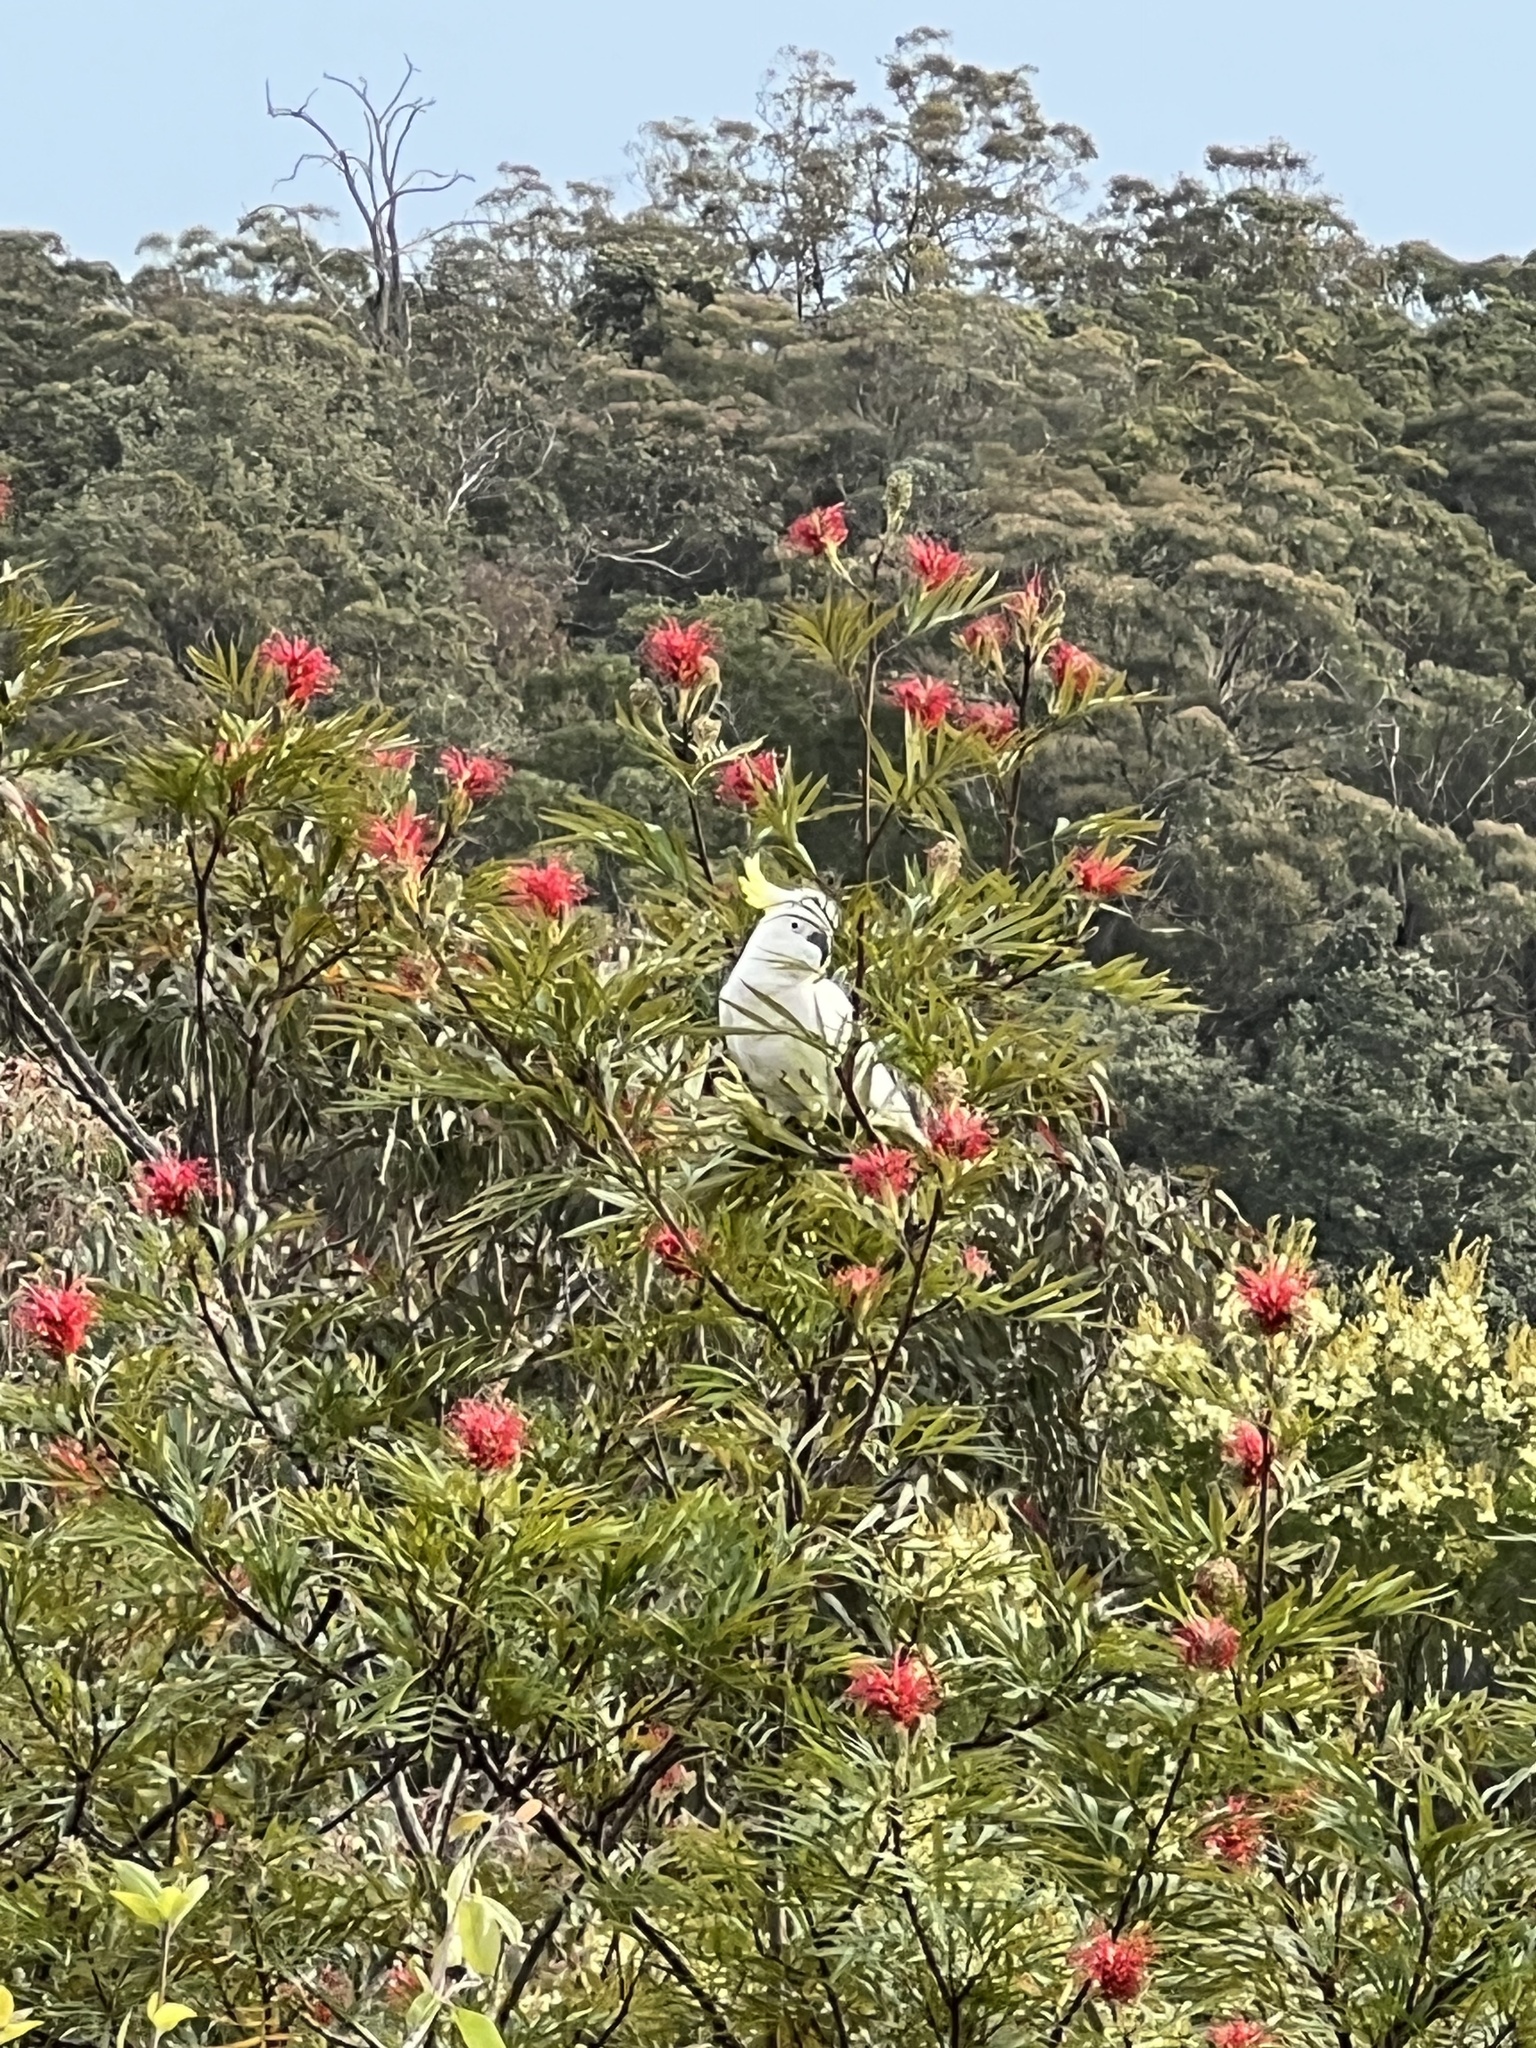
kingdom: Animalia
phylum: Chordata
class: Aves
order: Psittaciformes
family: Psittacidae
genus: Cacatua
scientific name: Cacatua galerita
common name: Sulphur-crested cockatoo
